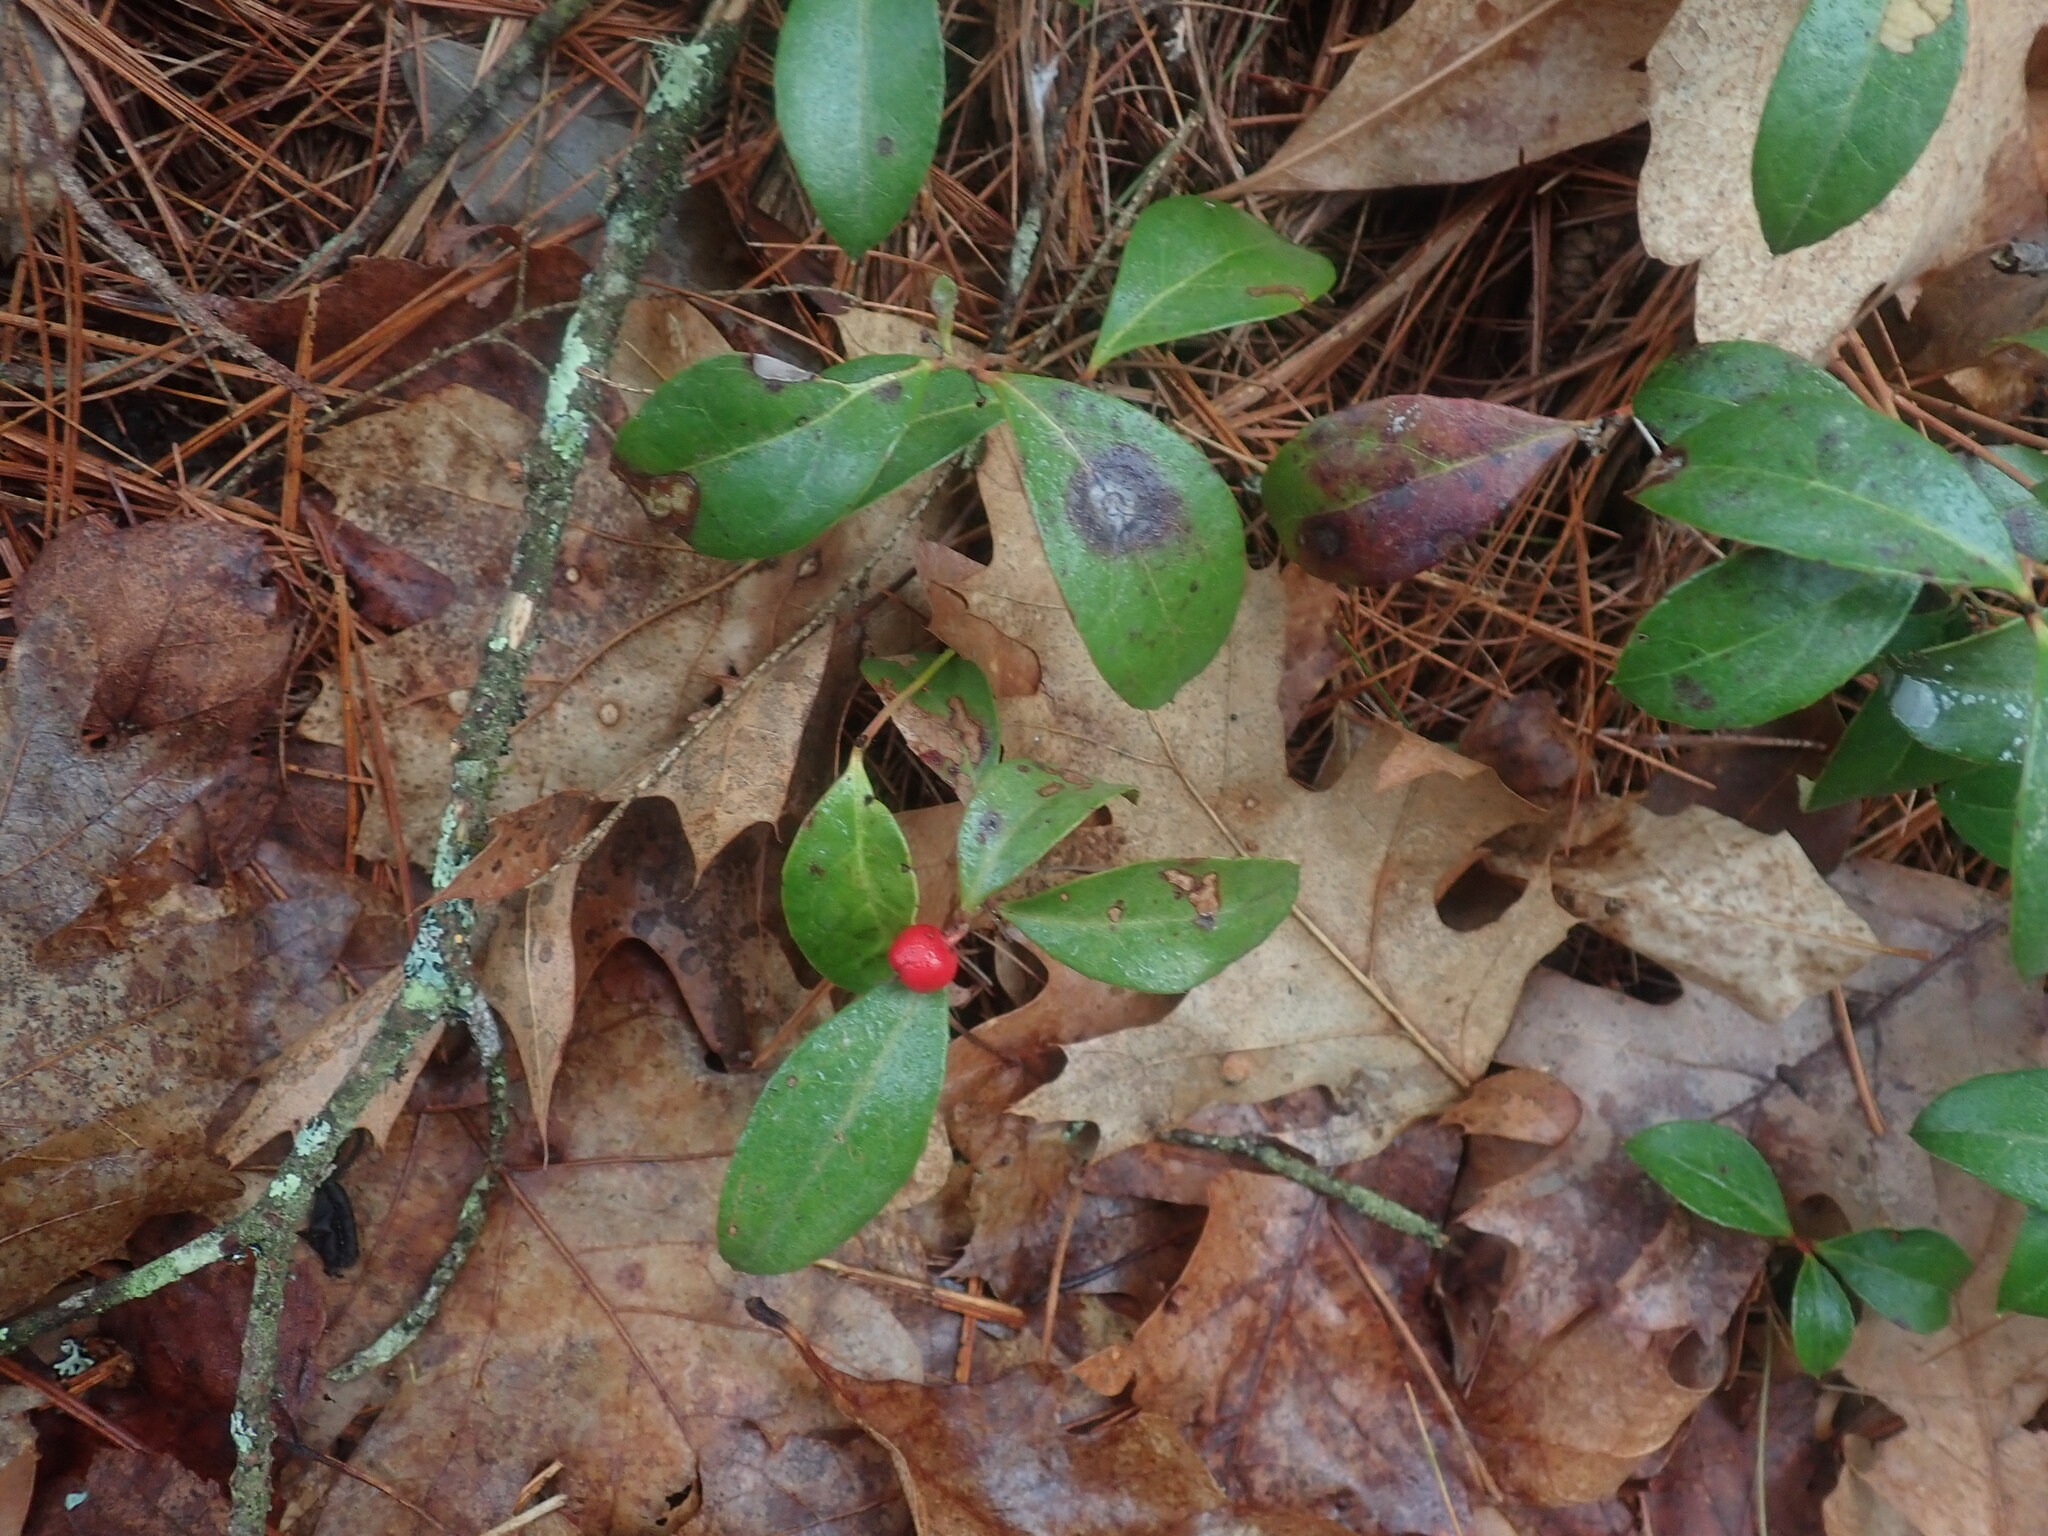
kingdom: Plantae
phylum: Tracheophyta
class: Magnoliopsida
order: Ericales
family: Ericaceae
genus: Gaultheria
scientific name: Gaultheria procumbens
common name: Checkerberry
